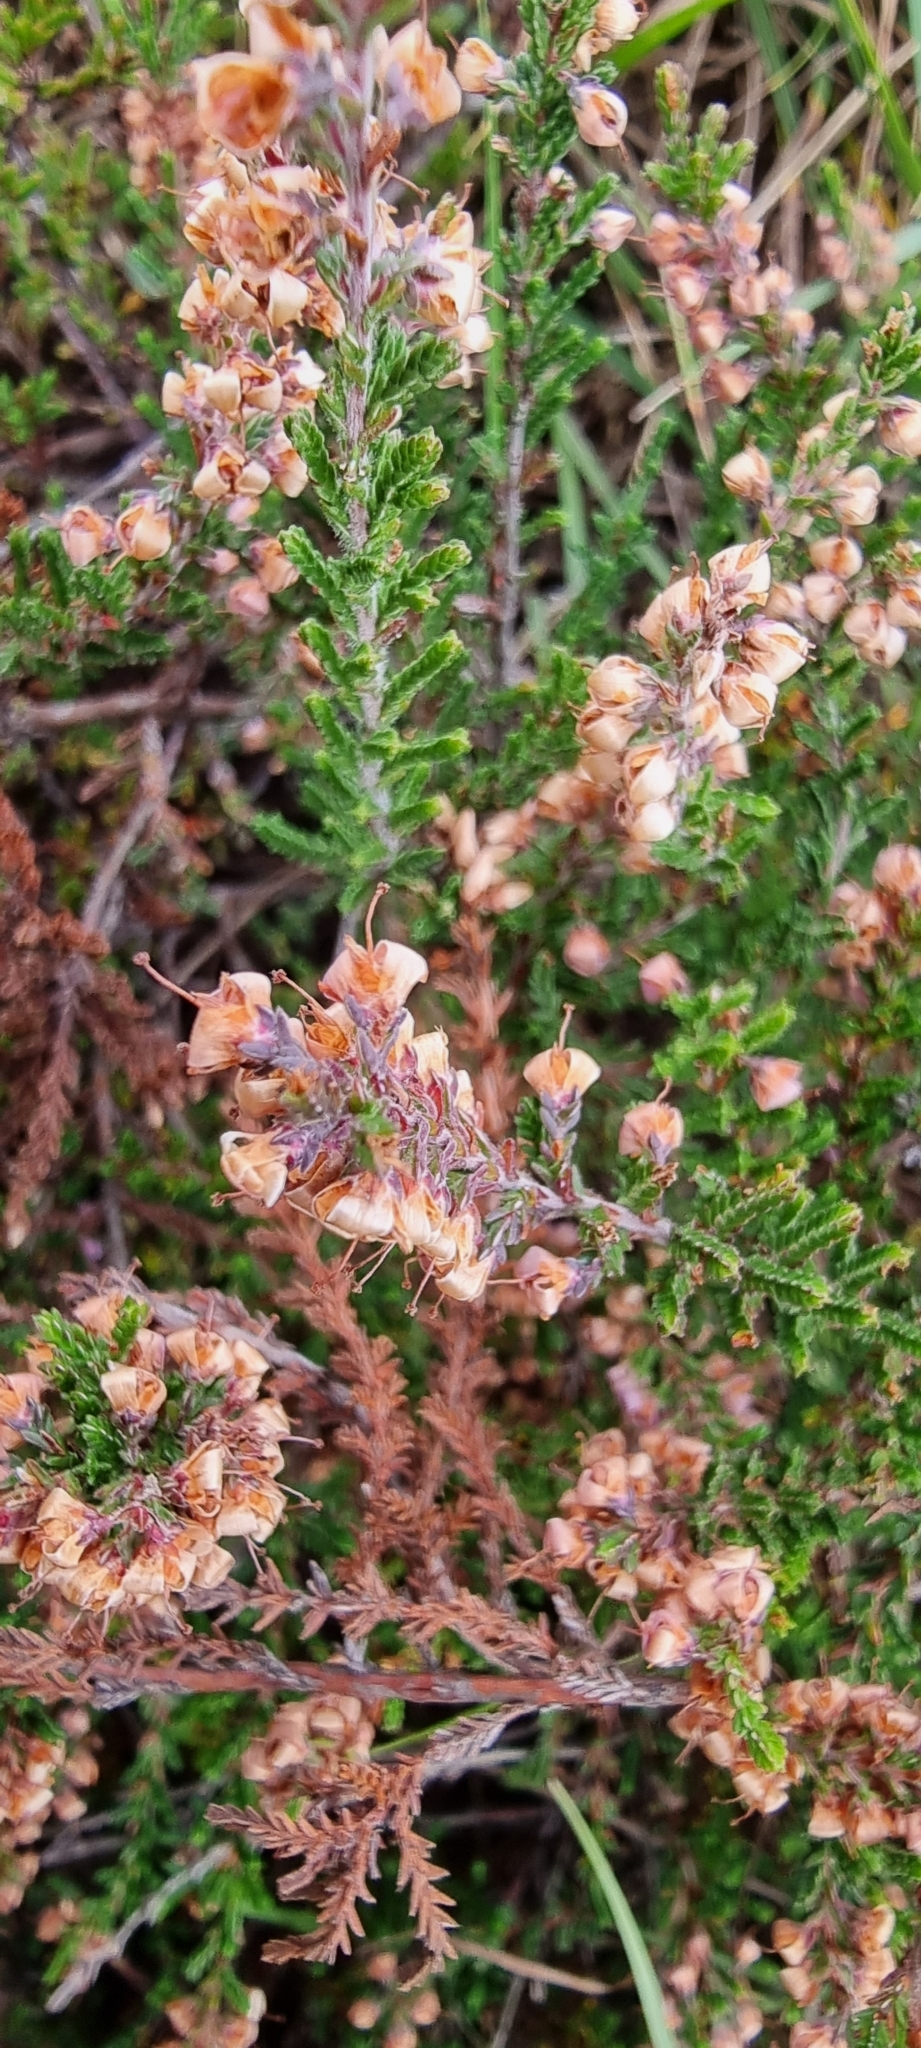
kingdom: Plantae
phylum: Tracheophyta
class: Magnoliopsida
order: Ericales
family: Ericaceae
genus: Calluna
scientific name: Calluna vulgaris
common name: Heather
